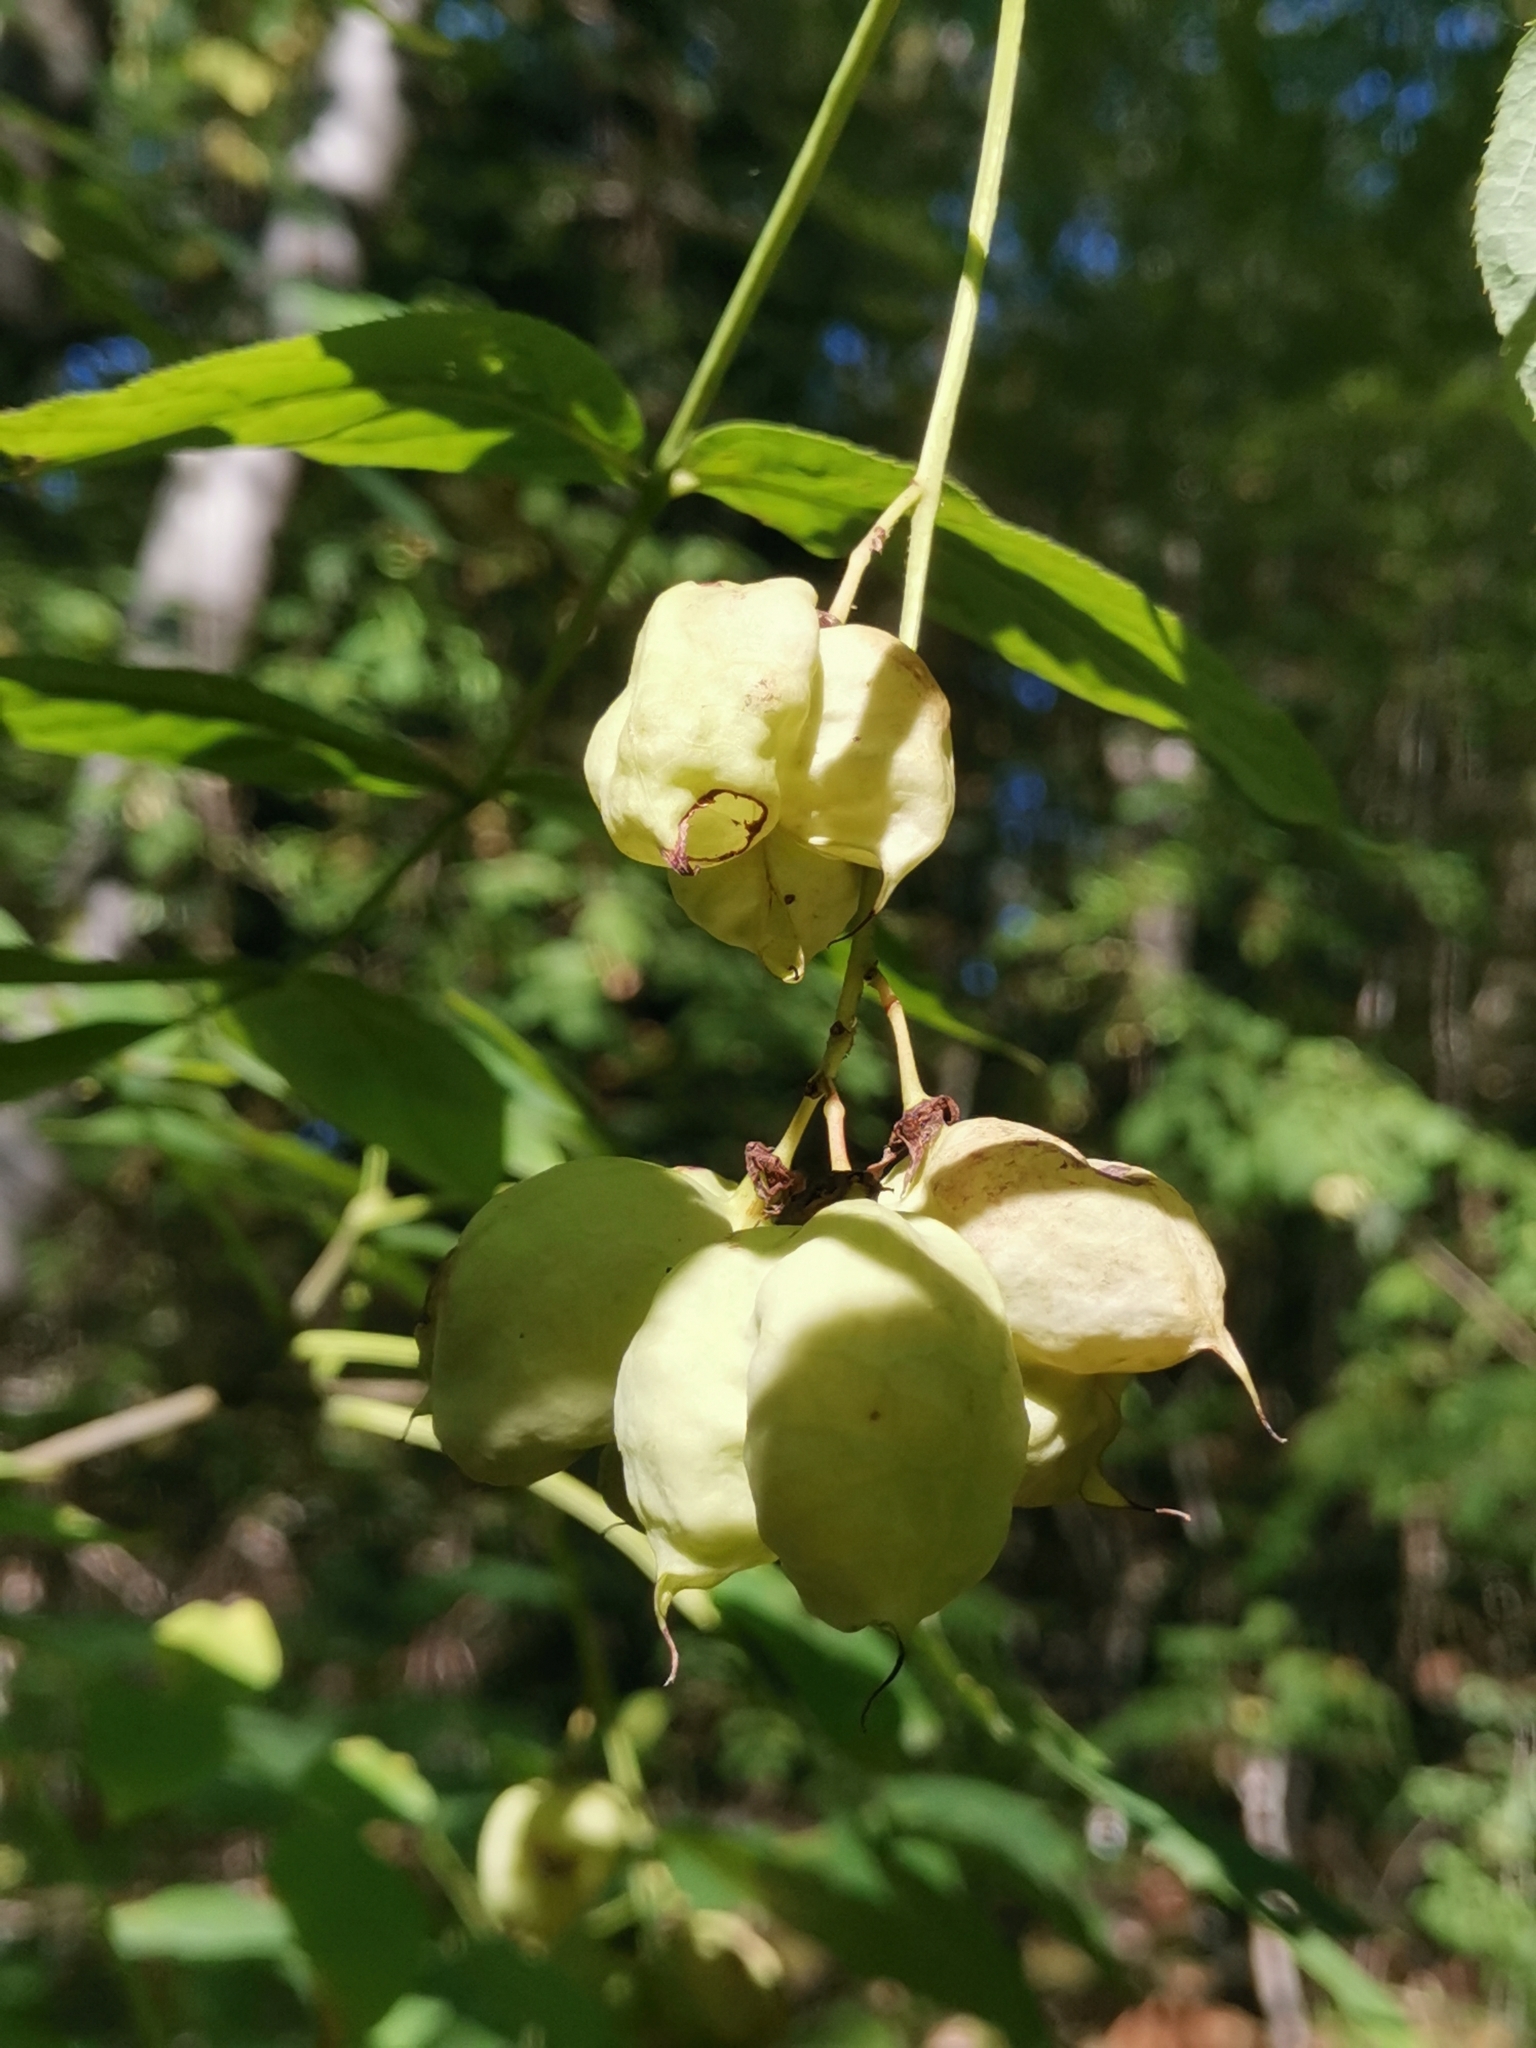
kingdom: Plantae
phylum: Tracheophyta
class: Magnoliopsida
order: Crossosomatales
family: Staphyleaceae
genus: Staphylea
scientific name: Staphylea pinnata
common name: Bladdernut
